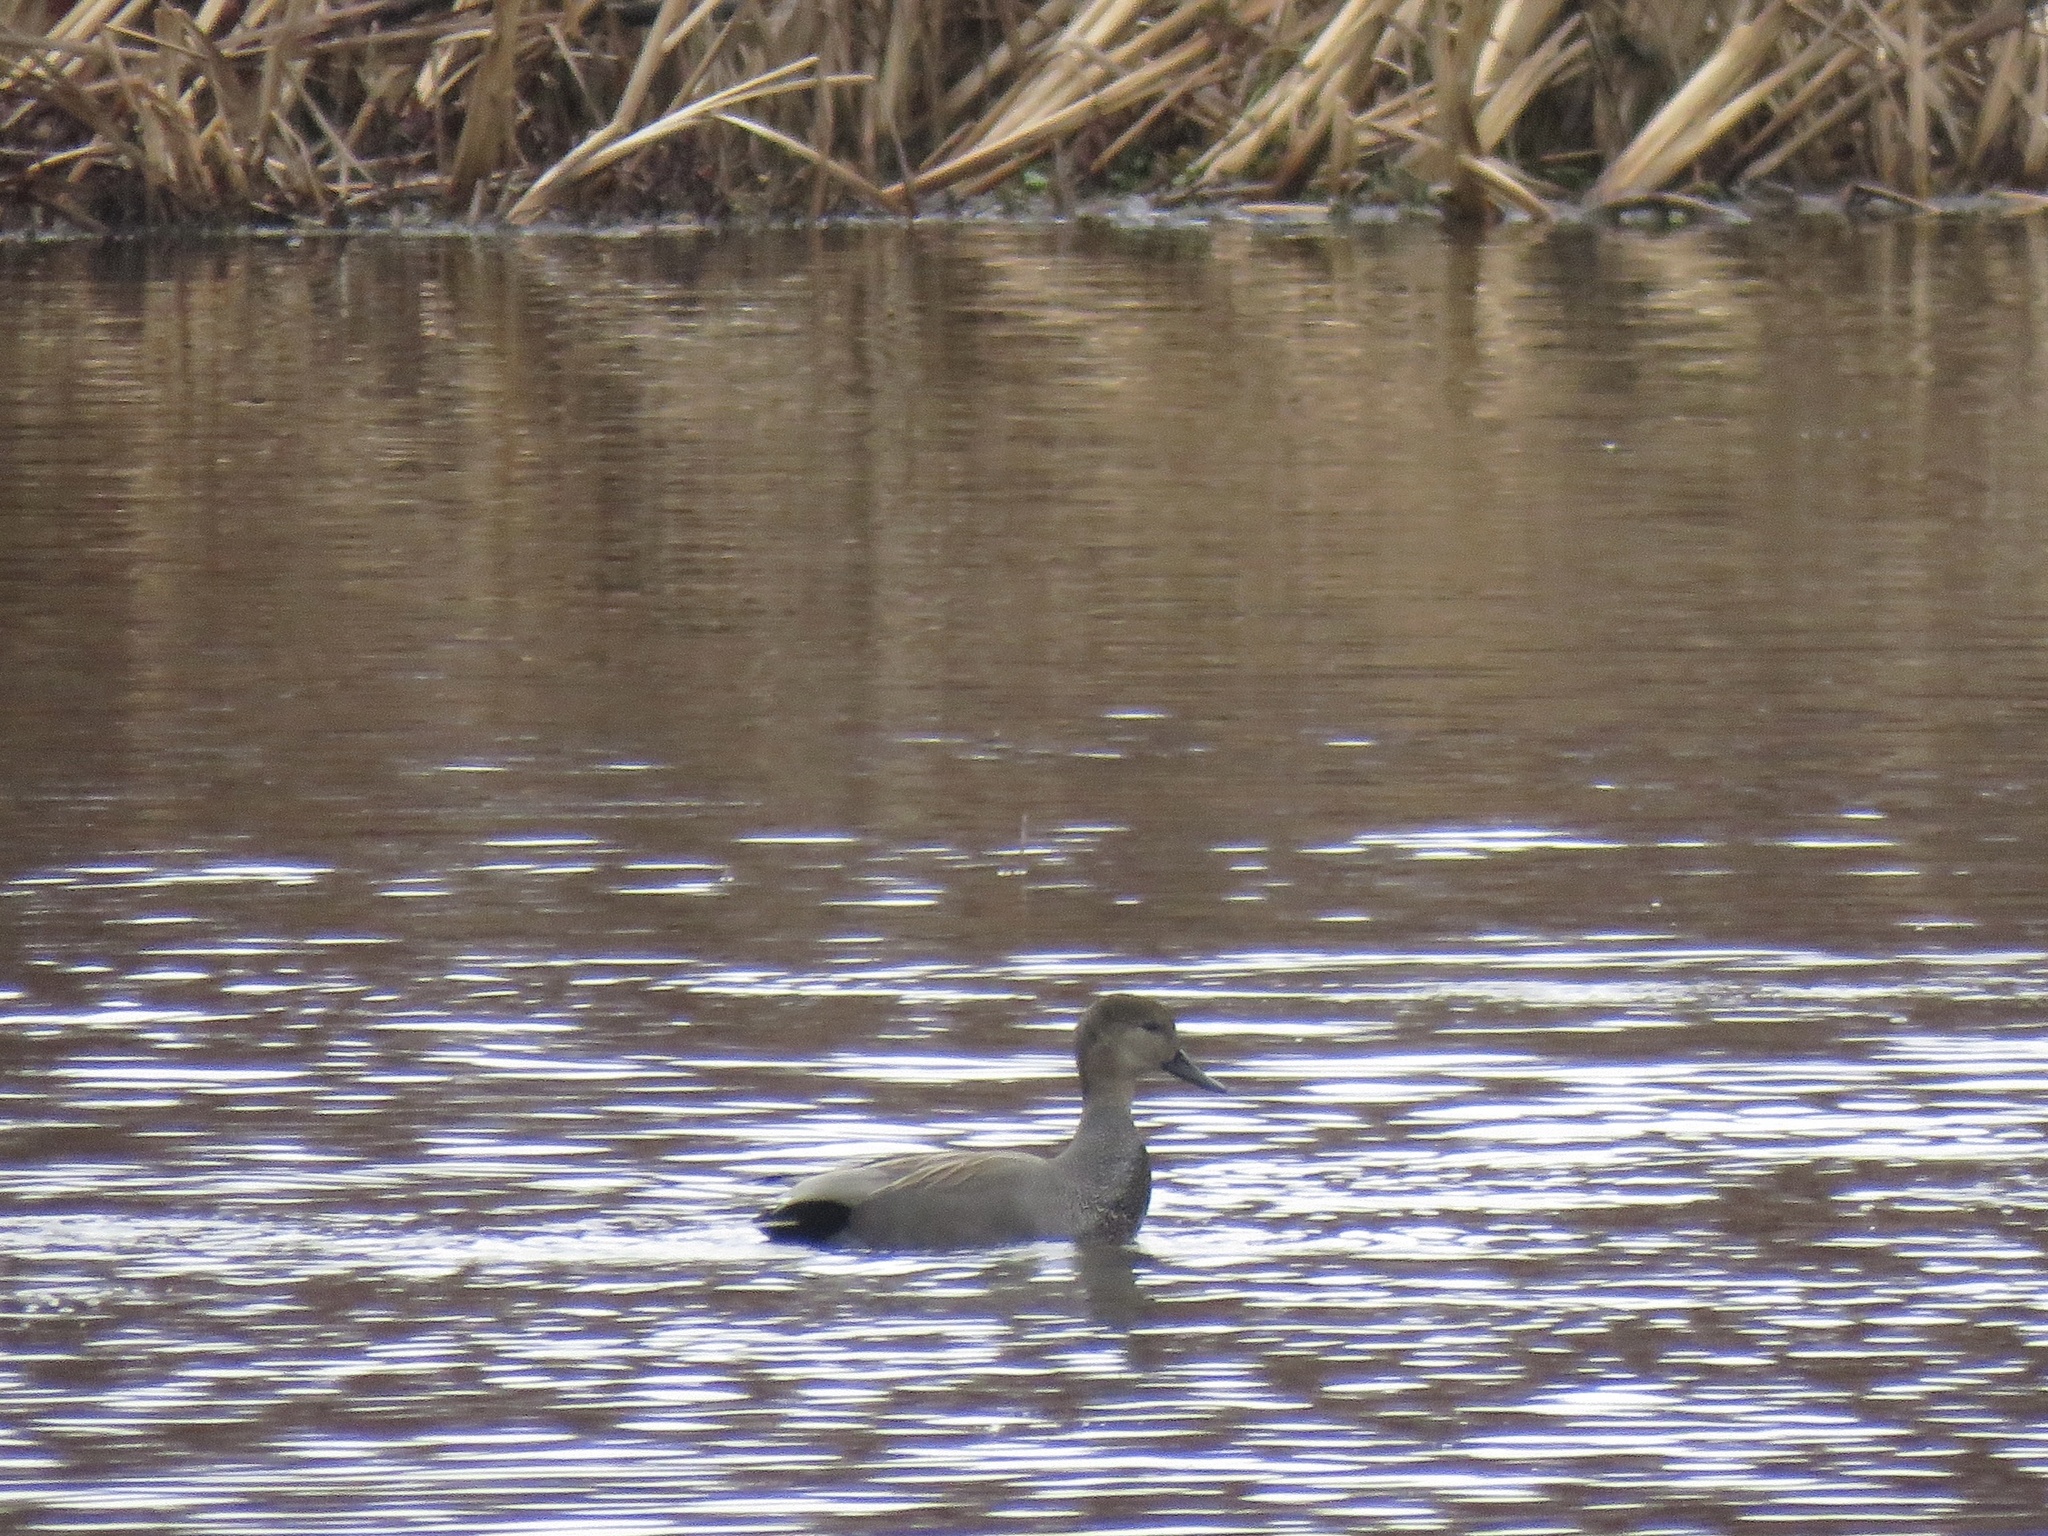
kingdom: Animalia
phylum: Chordata
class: Aves
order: Anseriformes
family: Anatidae
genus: Mareca
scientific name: Mareca strepera
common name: Gadwall
